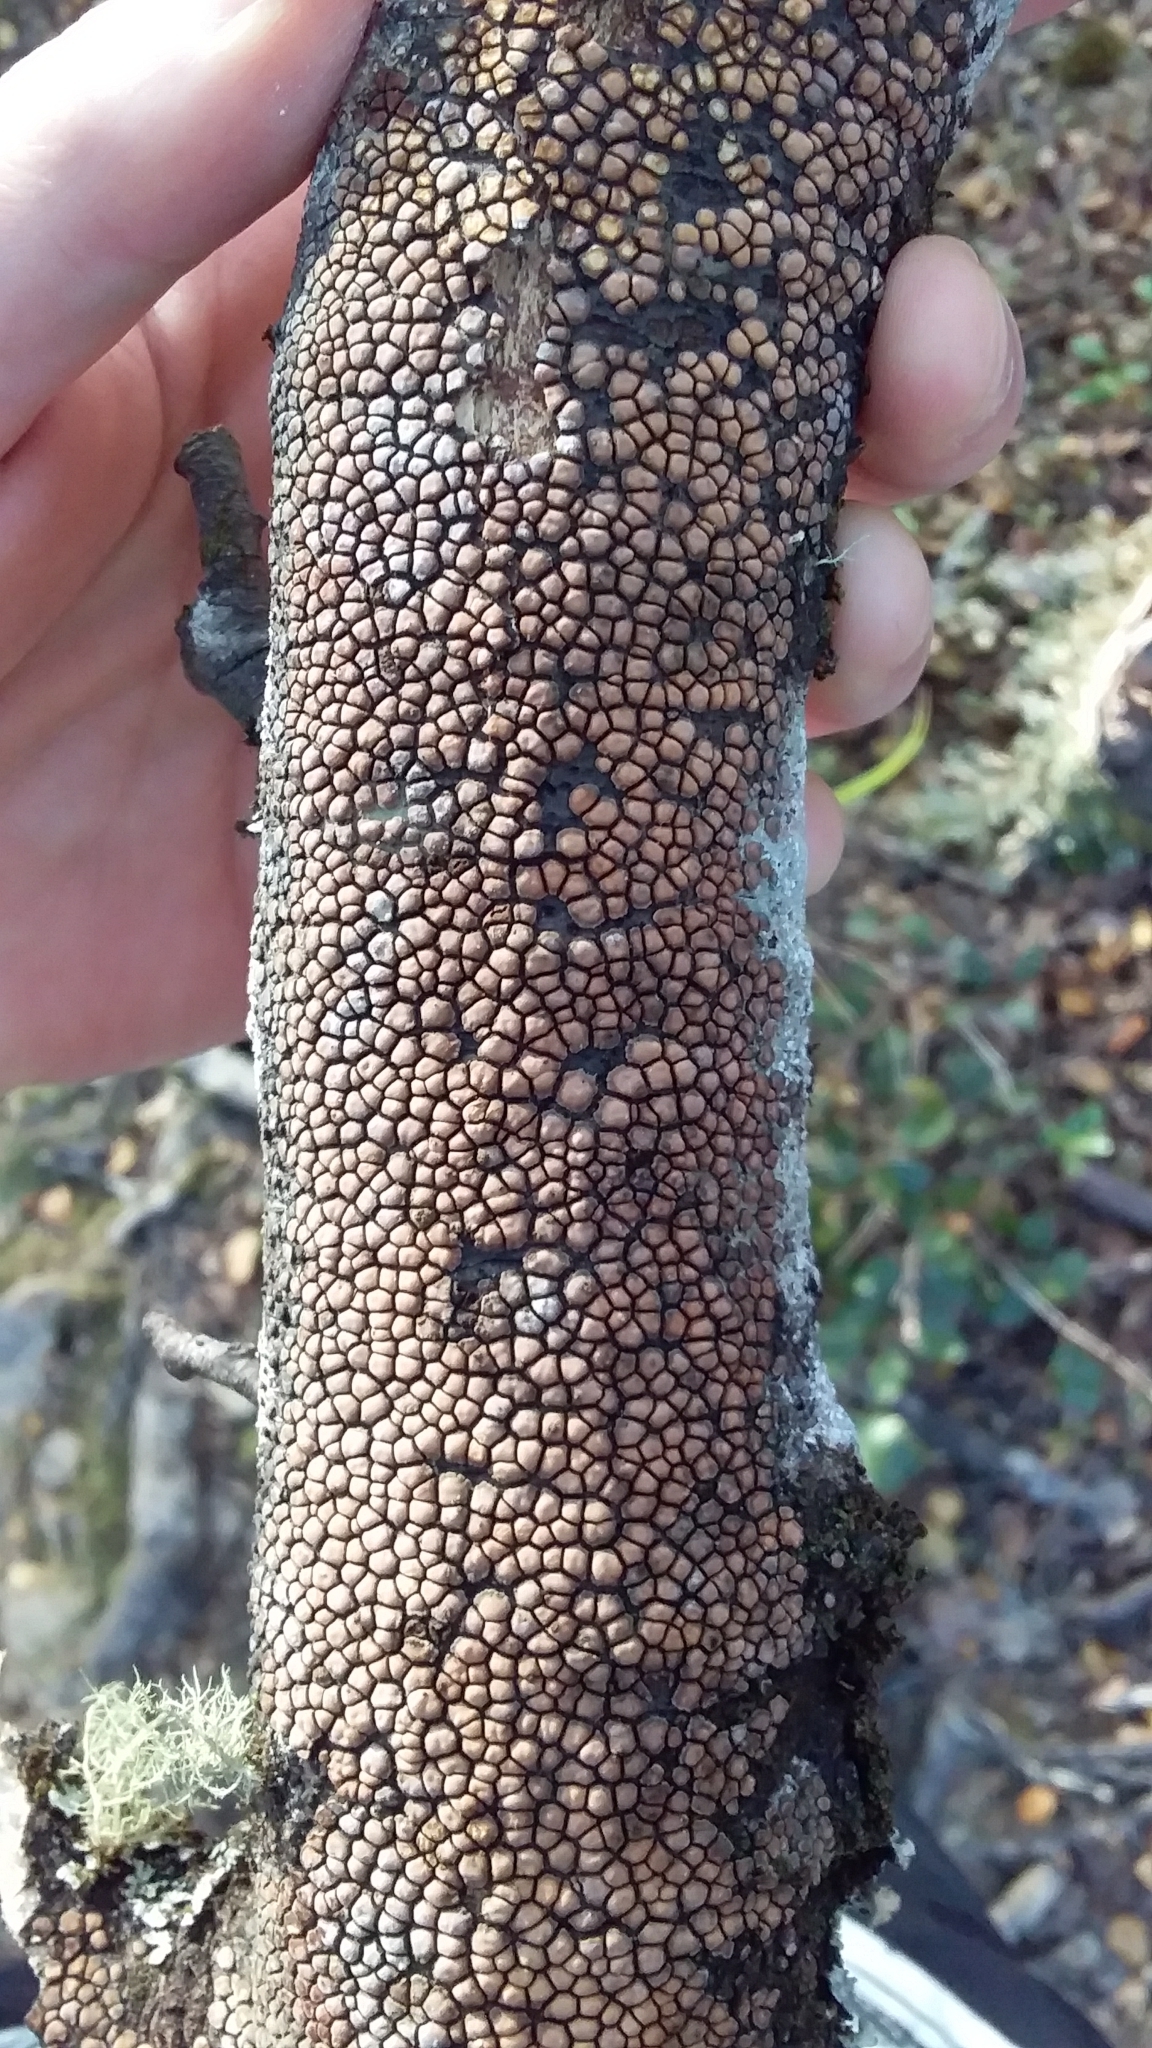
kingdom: Fungi
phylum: Basidiomycota
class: Agaricomycetes
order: Russulales
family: Stereaceae
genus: Aleurodiscus
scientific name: Aleurodiscus berggrenii
